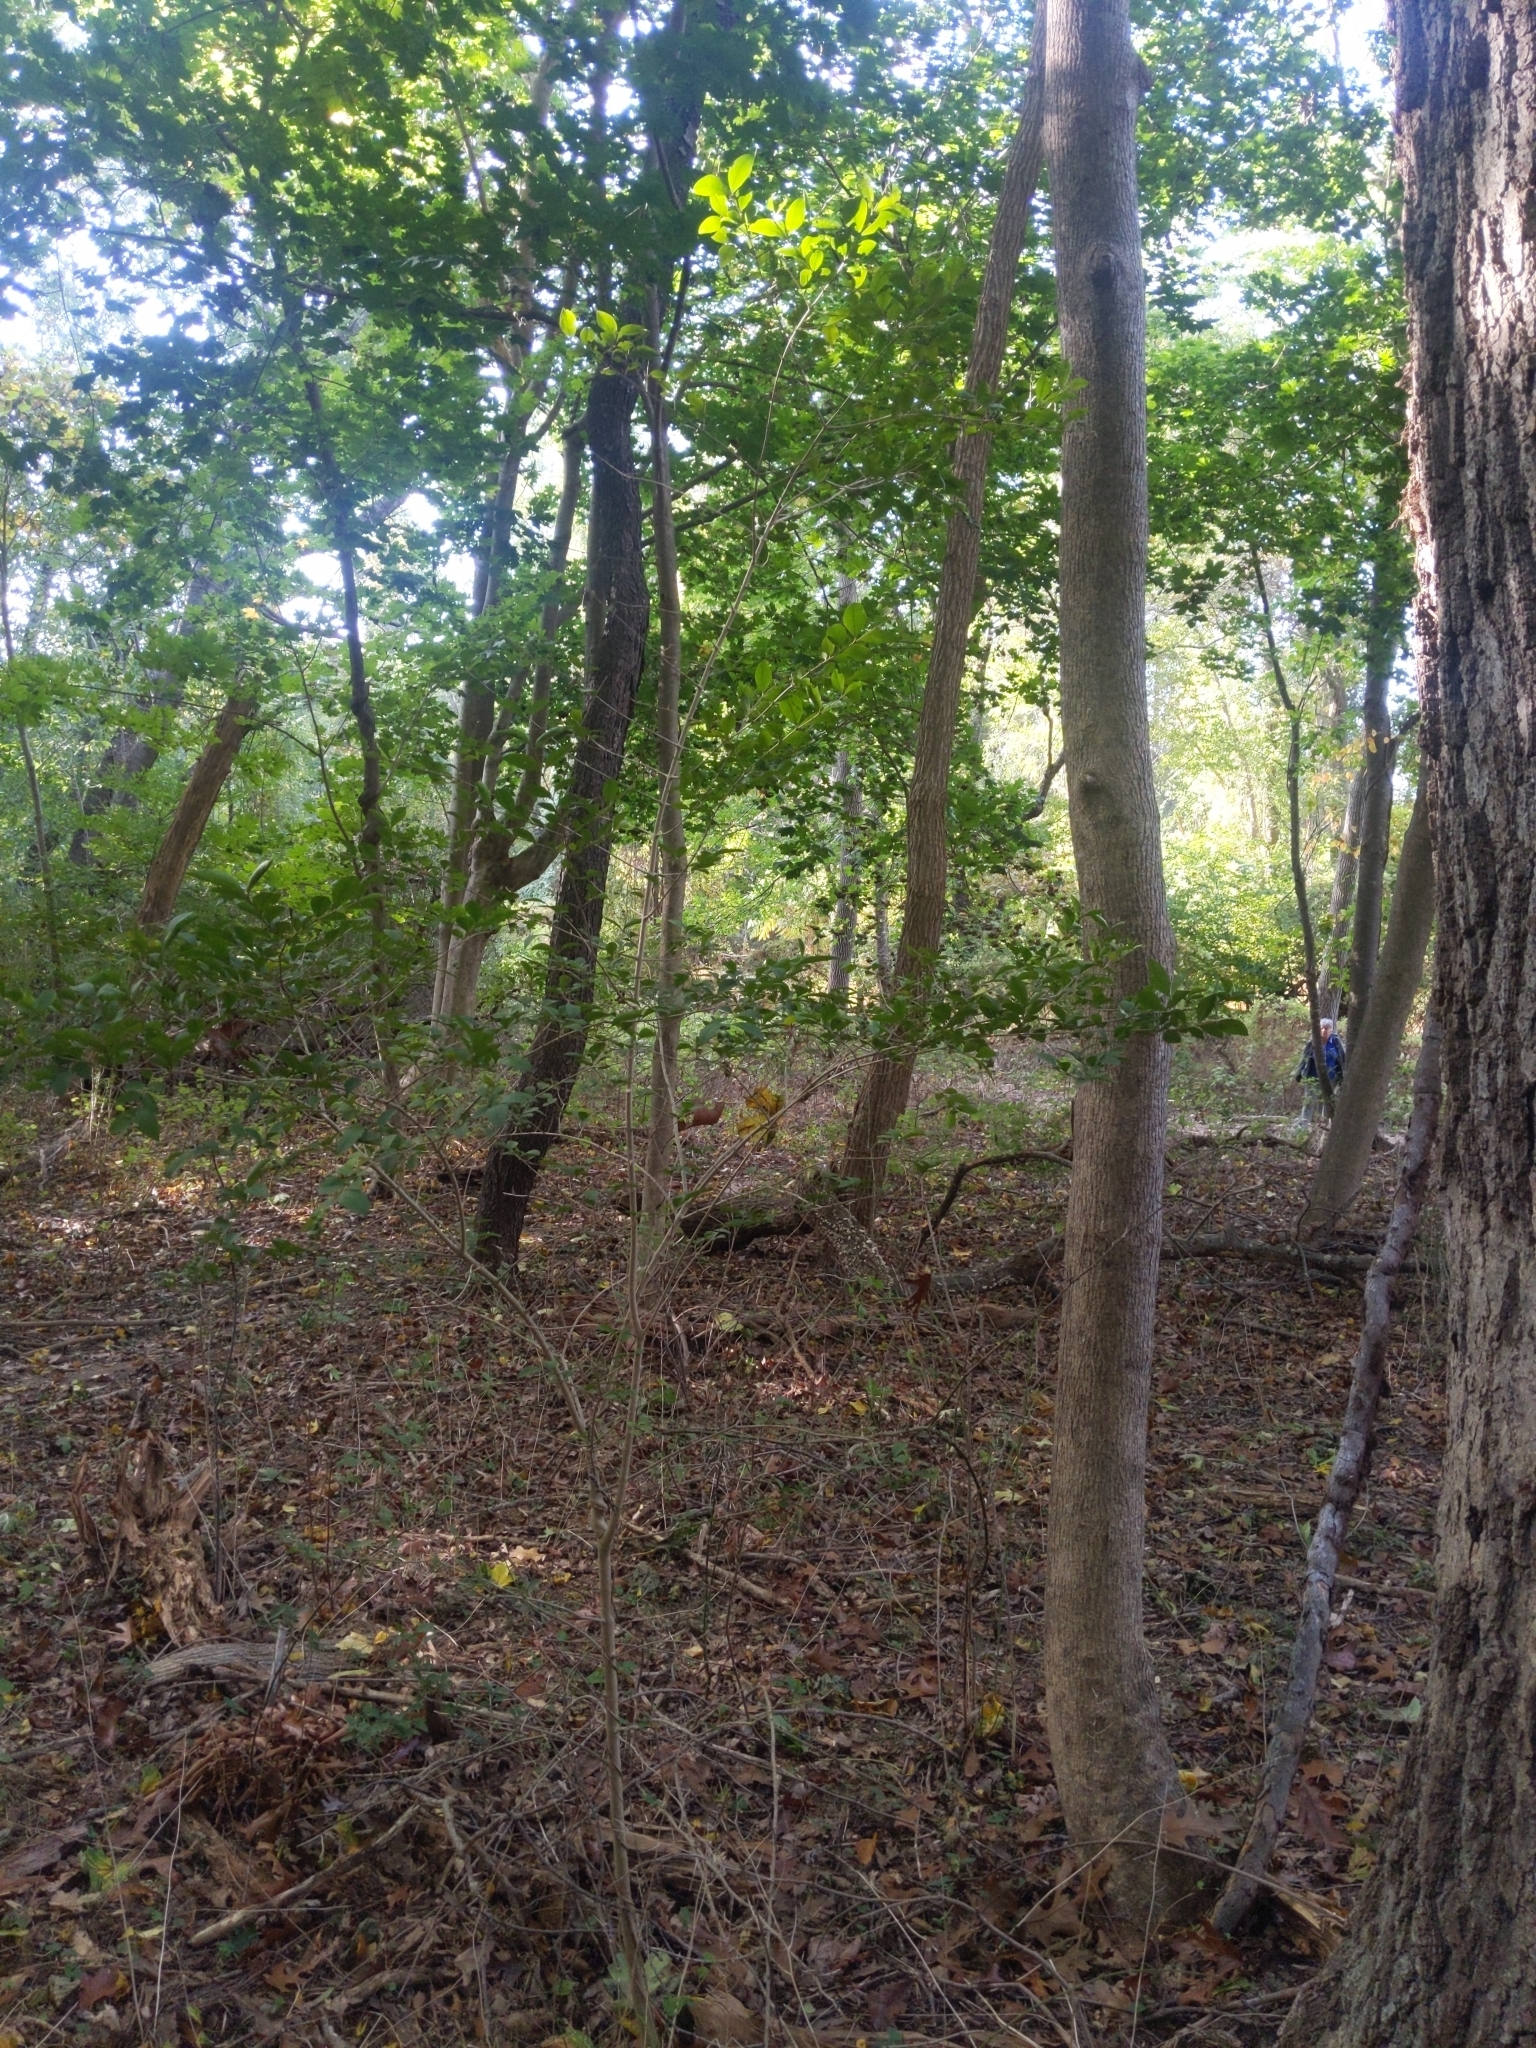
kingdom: Plantae
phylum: Tracheophyta
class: Magnoliopsida
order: Lamiales
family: Oleaceae
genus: Ligustrum
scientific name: Ligustrum ovalifolium
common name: California privet
